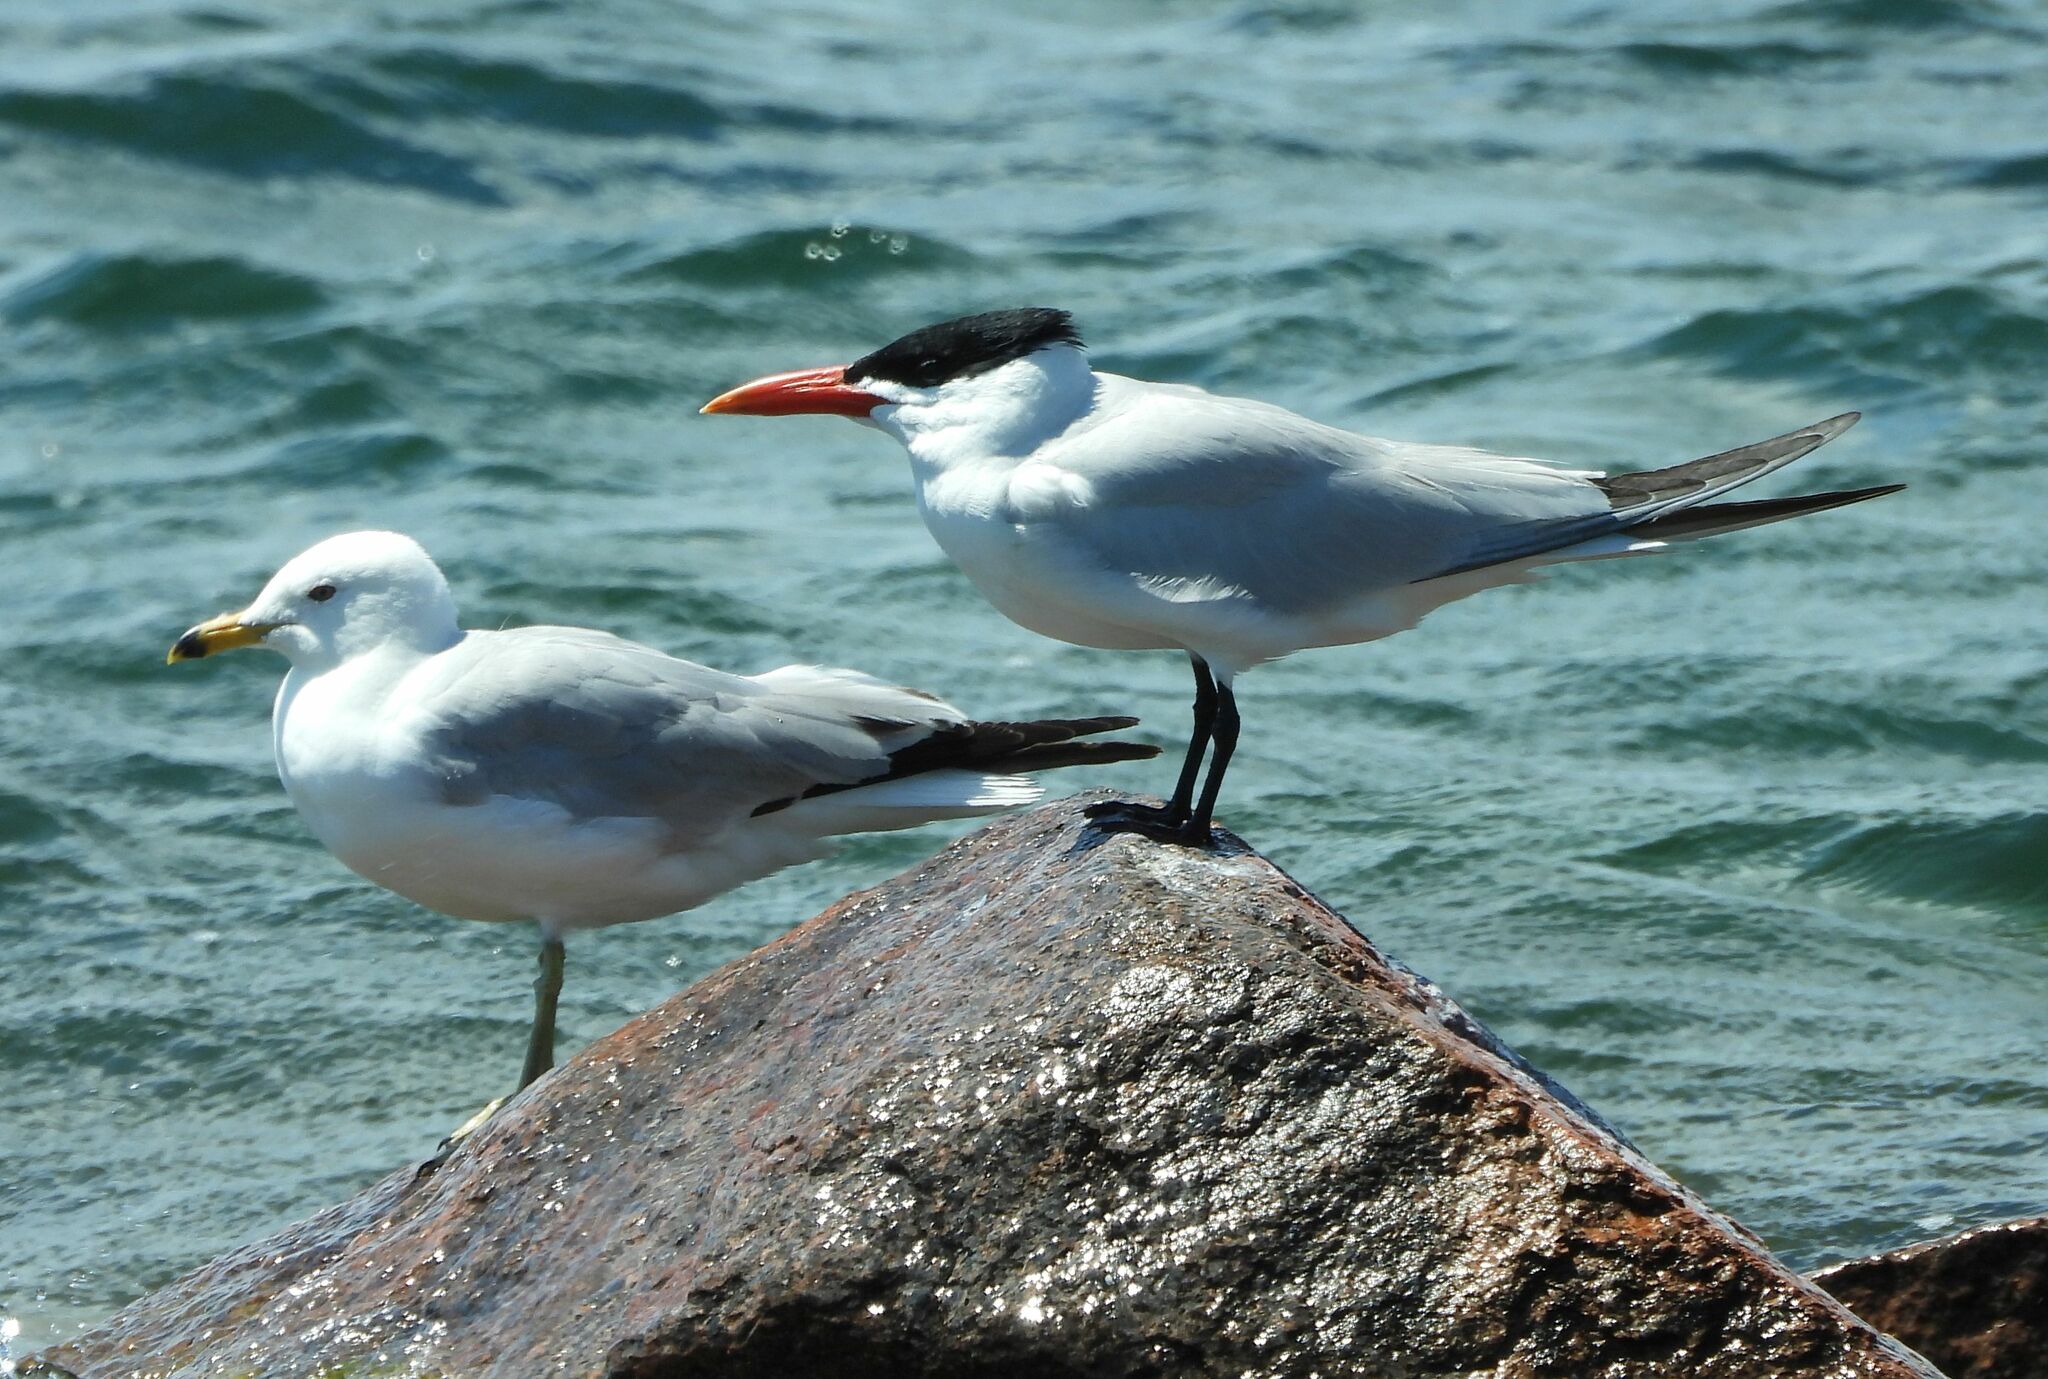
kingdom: Animalia
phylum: Chordata
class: Aves
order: Charadriiformes
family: Laridae
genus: Larus
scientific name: Larus delawarensis
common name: Ring-billed gull
